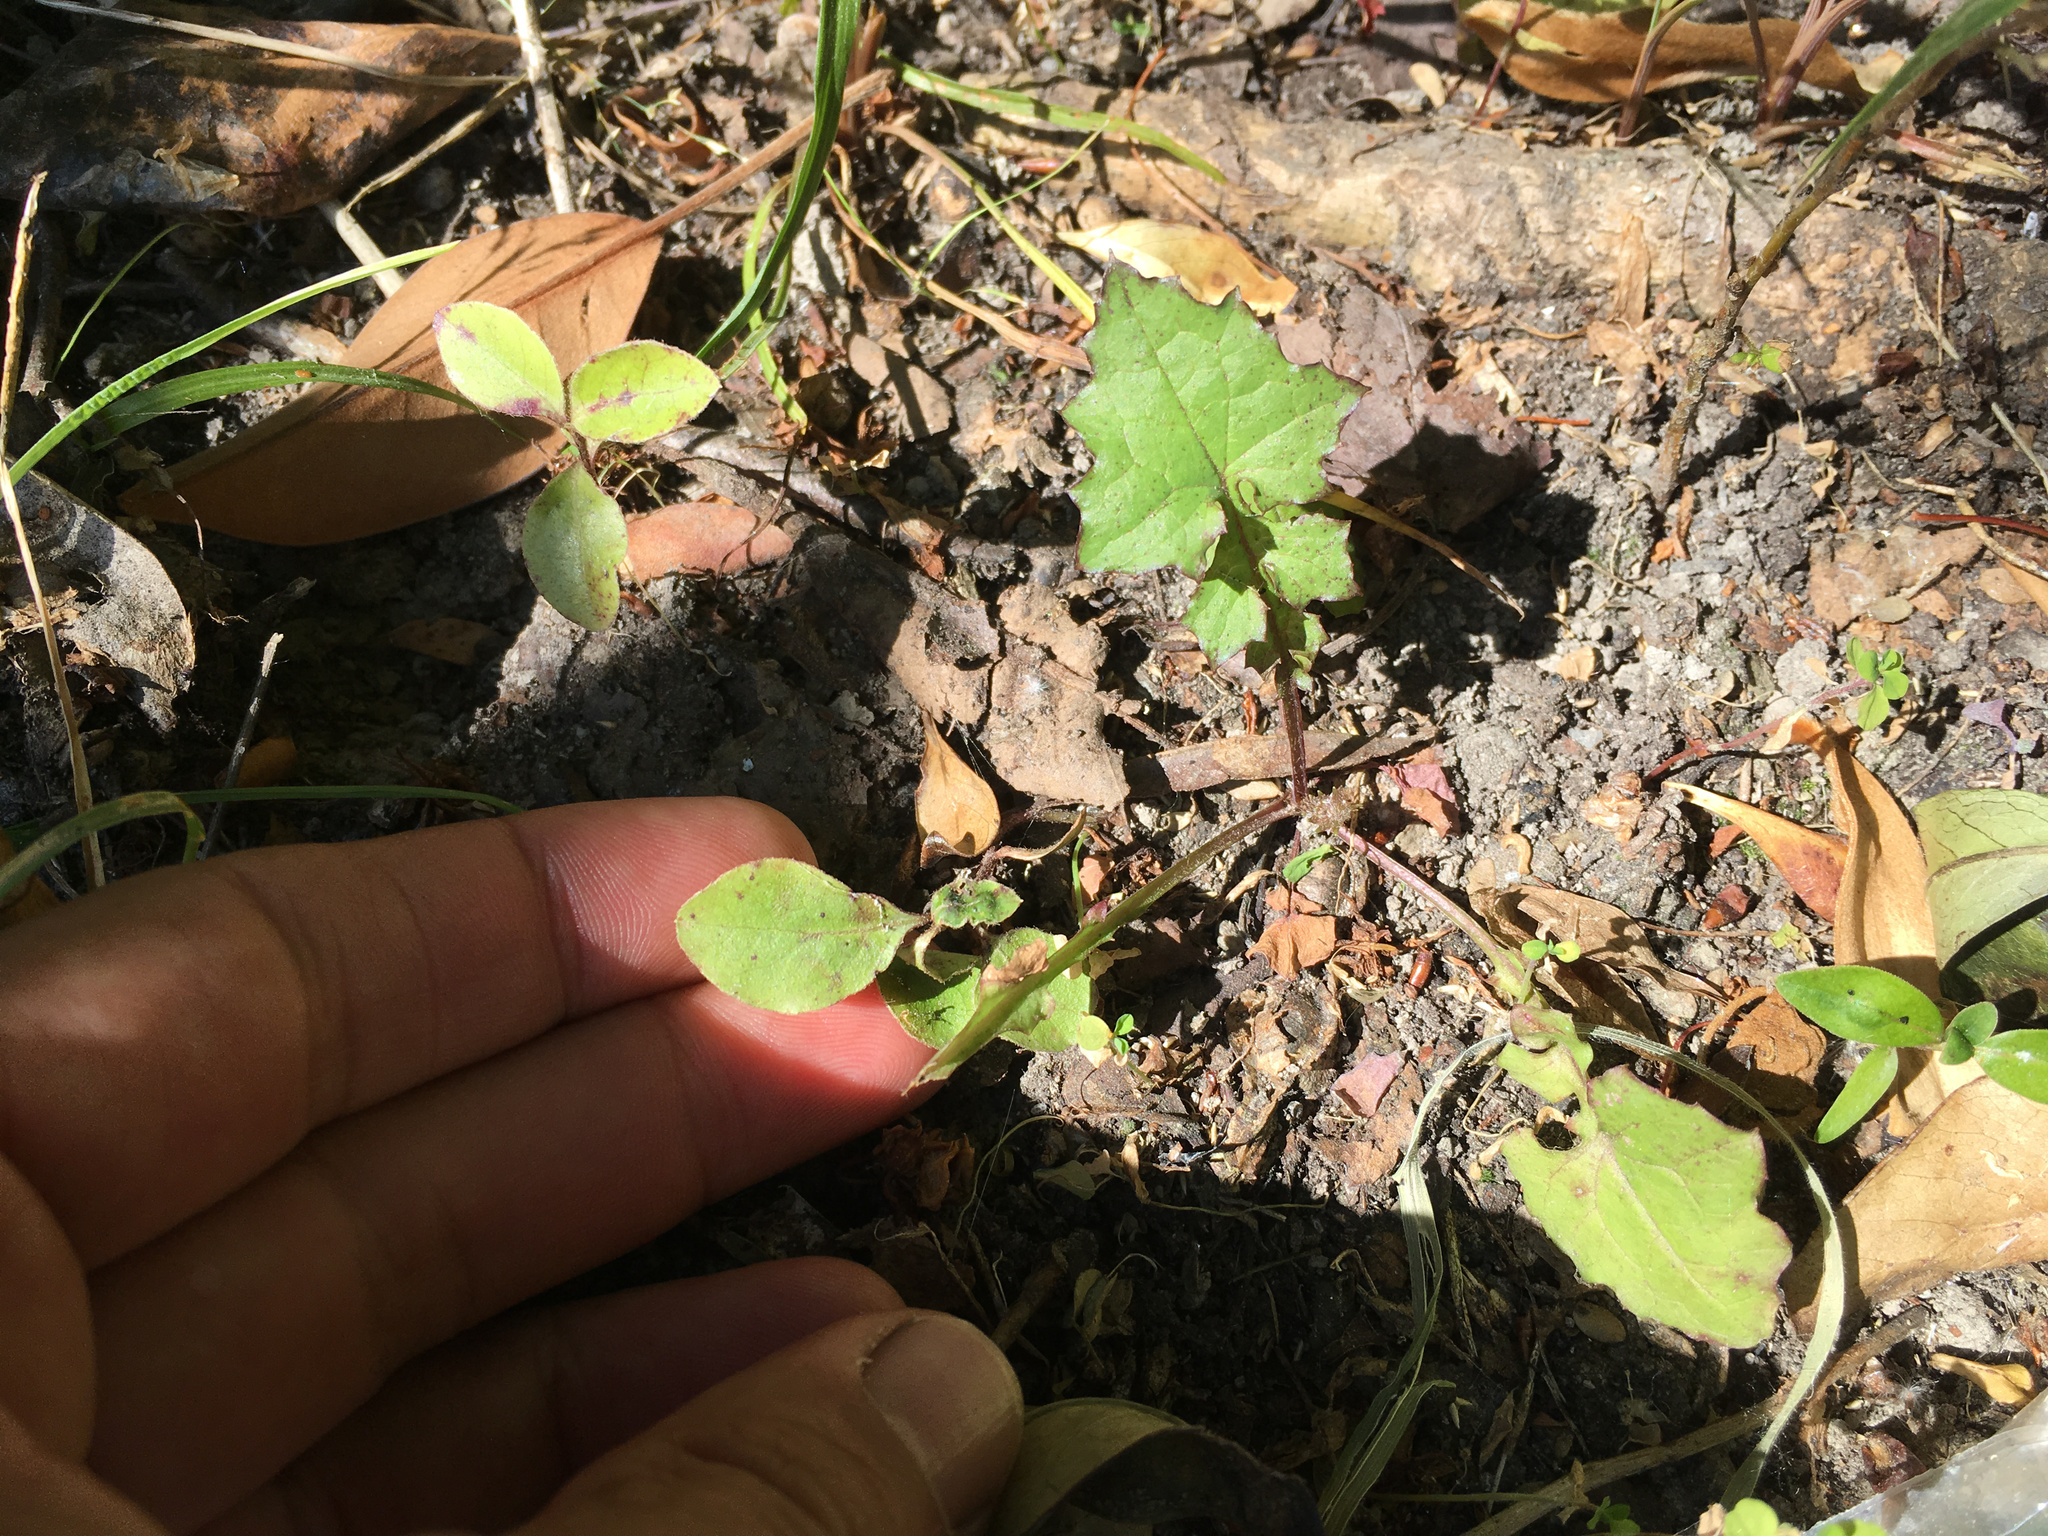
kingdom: Plantae
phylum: Tracheophyta
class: Magnoliopsida
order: Asterales
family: Asteraceae
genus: Mycelis
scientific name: Mycelis muralis
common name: Wall lettuce
